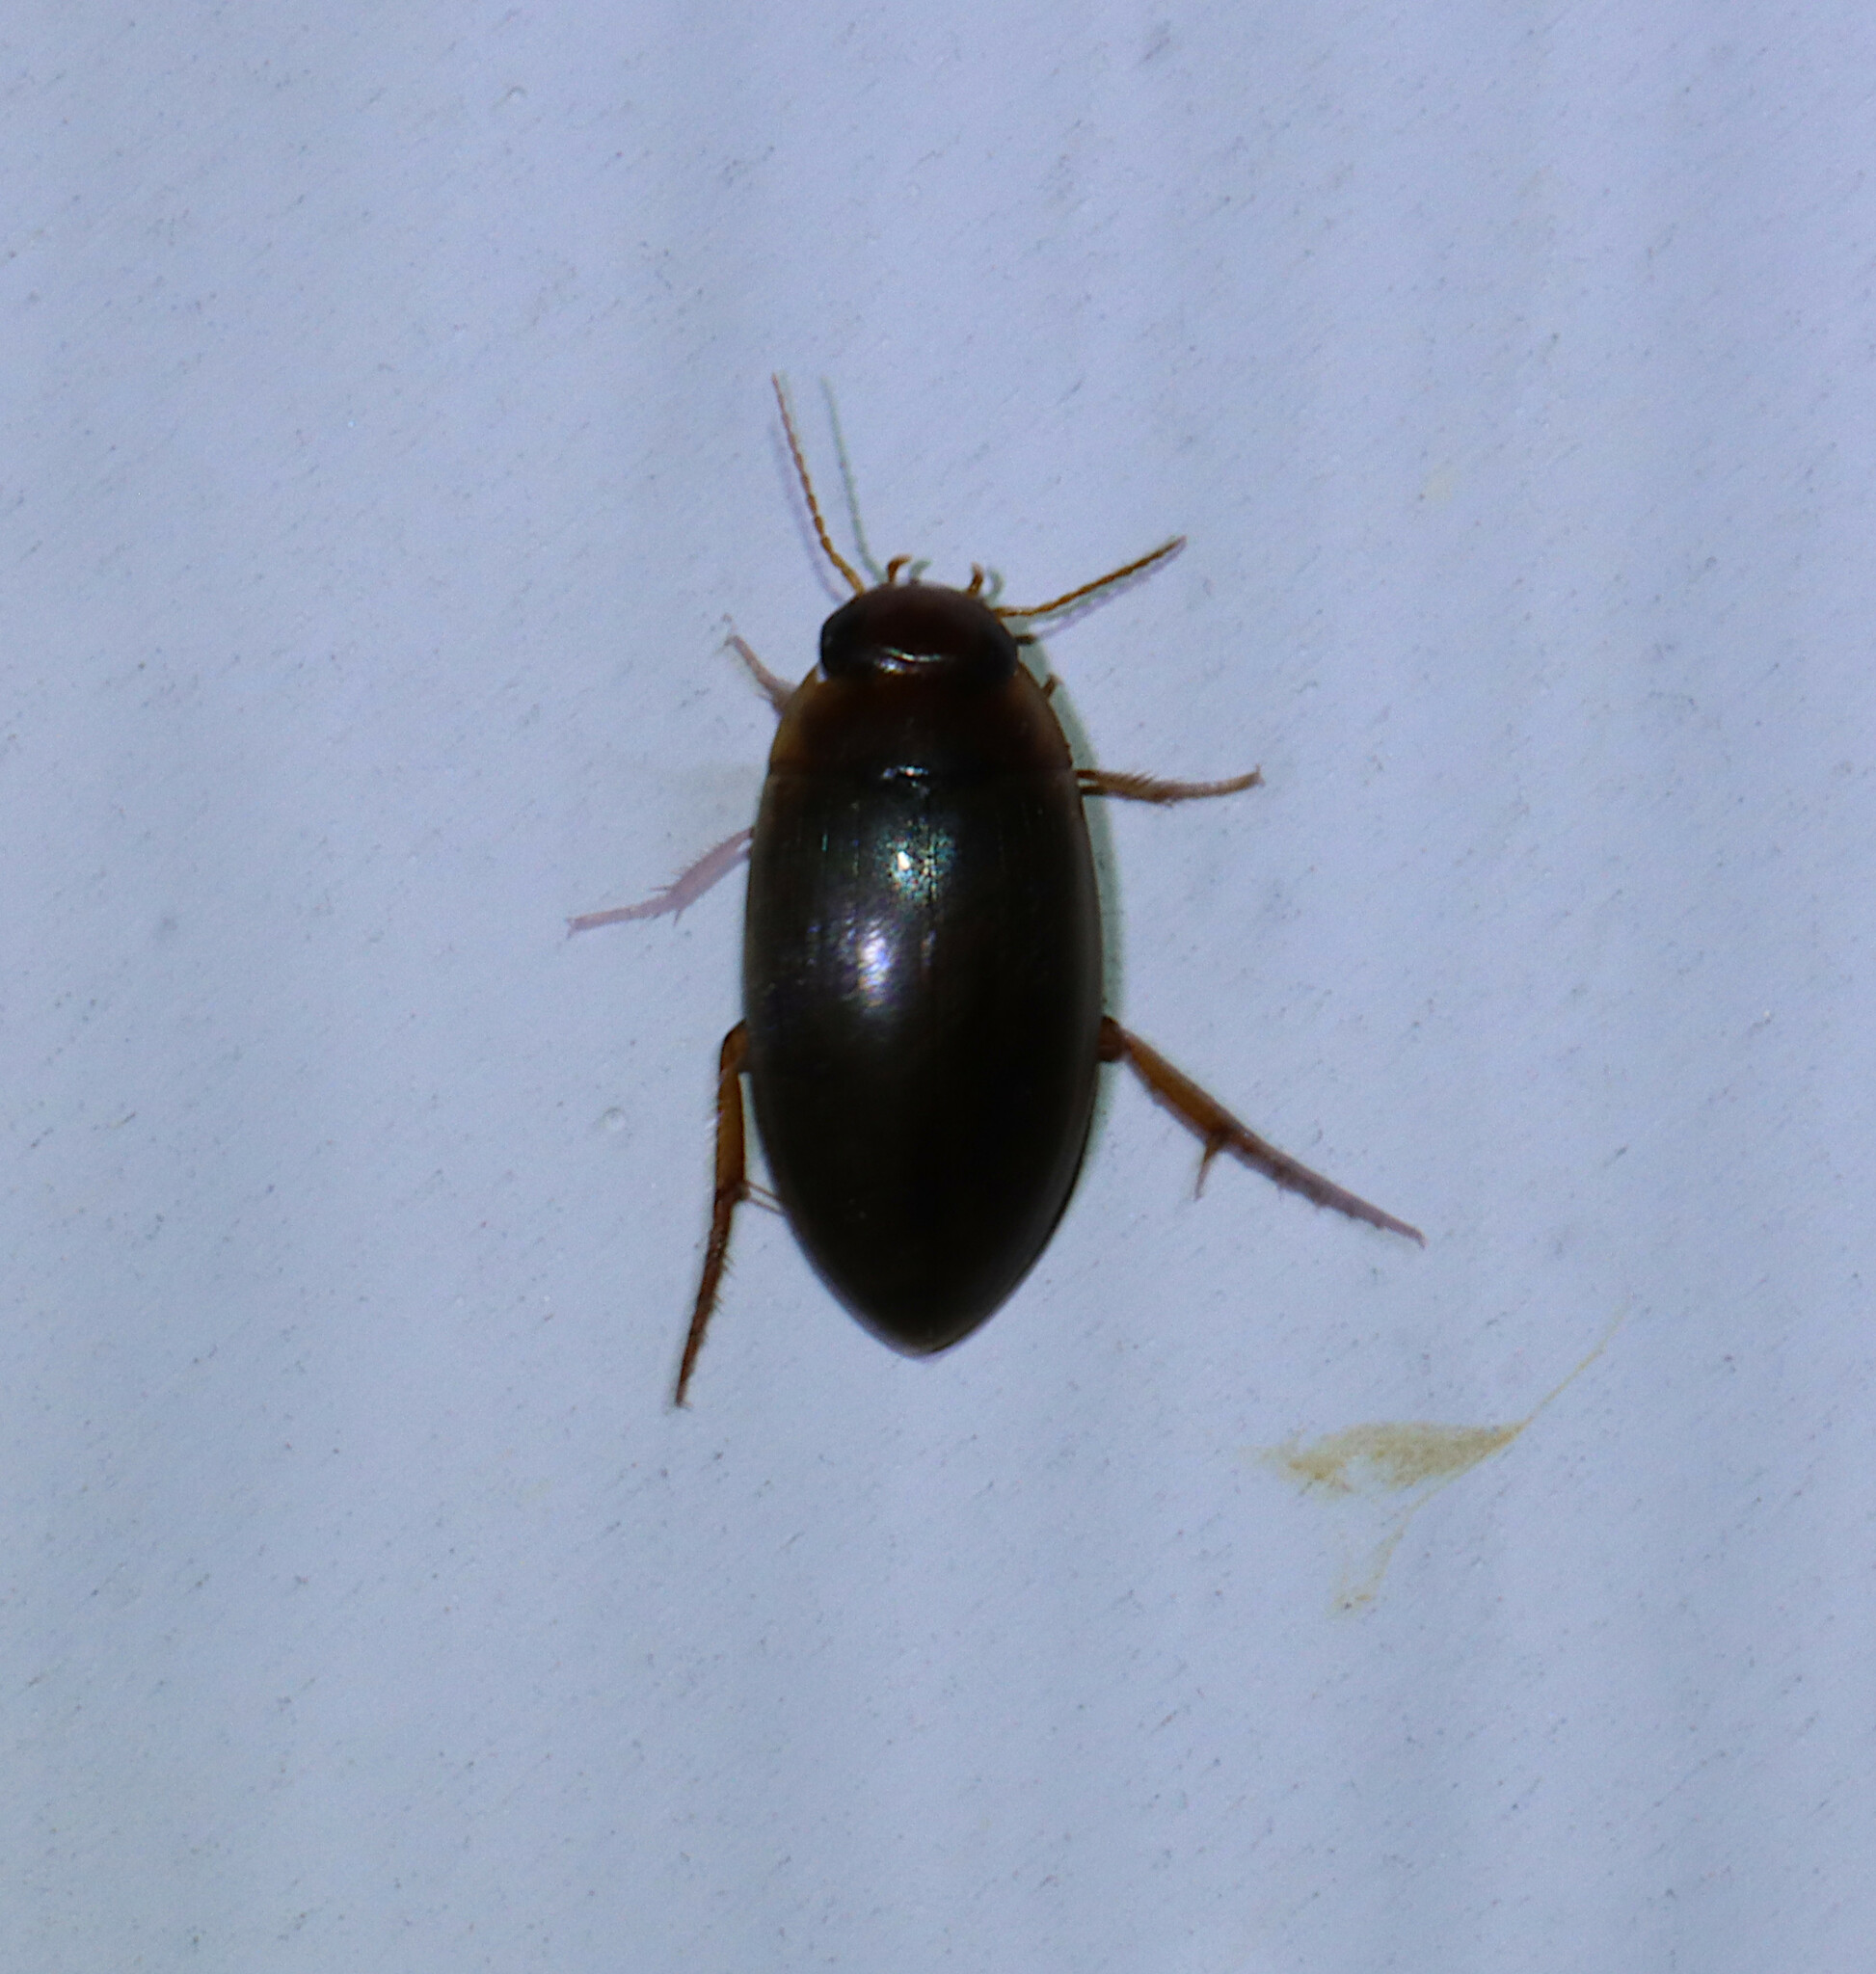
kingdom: Animalia
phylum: Arthropoda
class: Insecta
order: Coleoptera
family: Dytiscidae
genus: Copelatus
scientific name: Copelatus chevrolati
